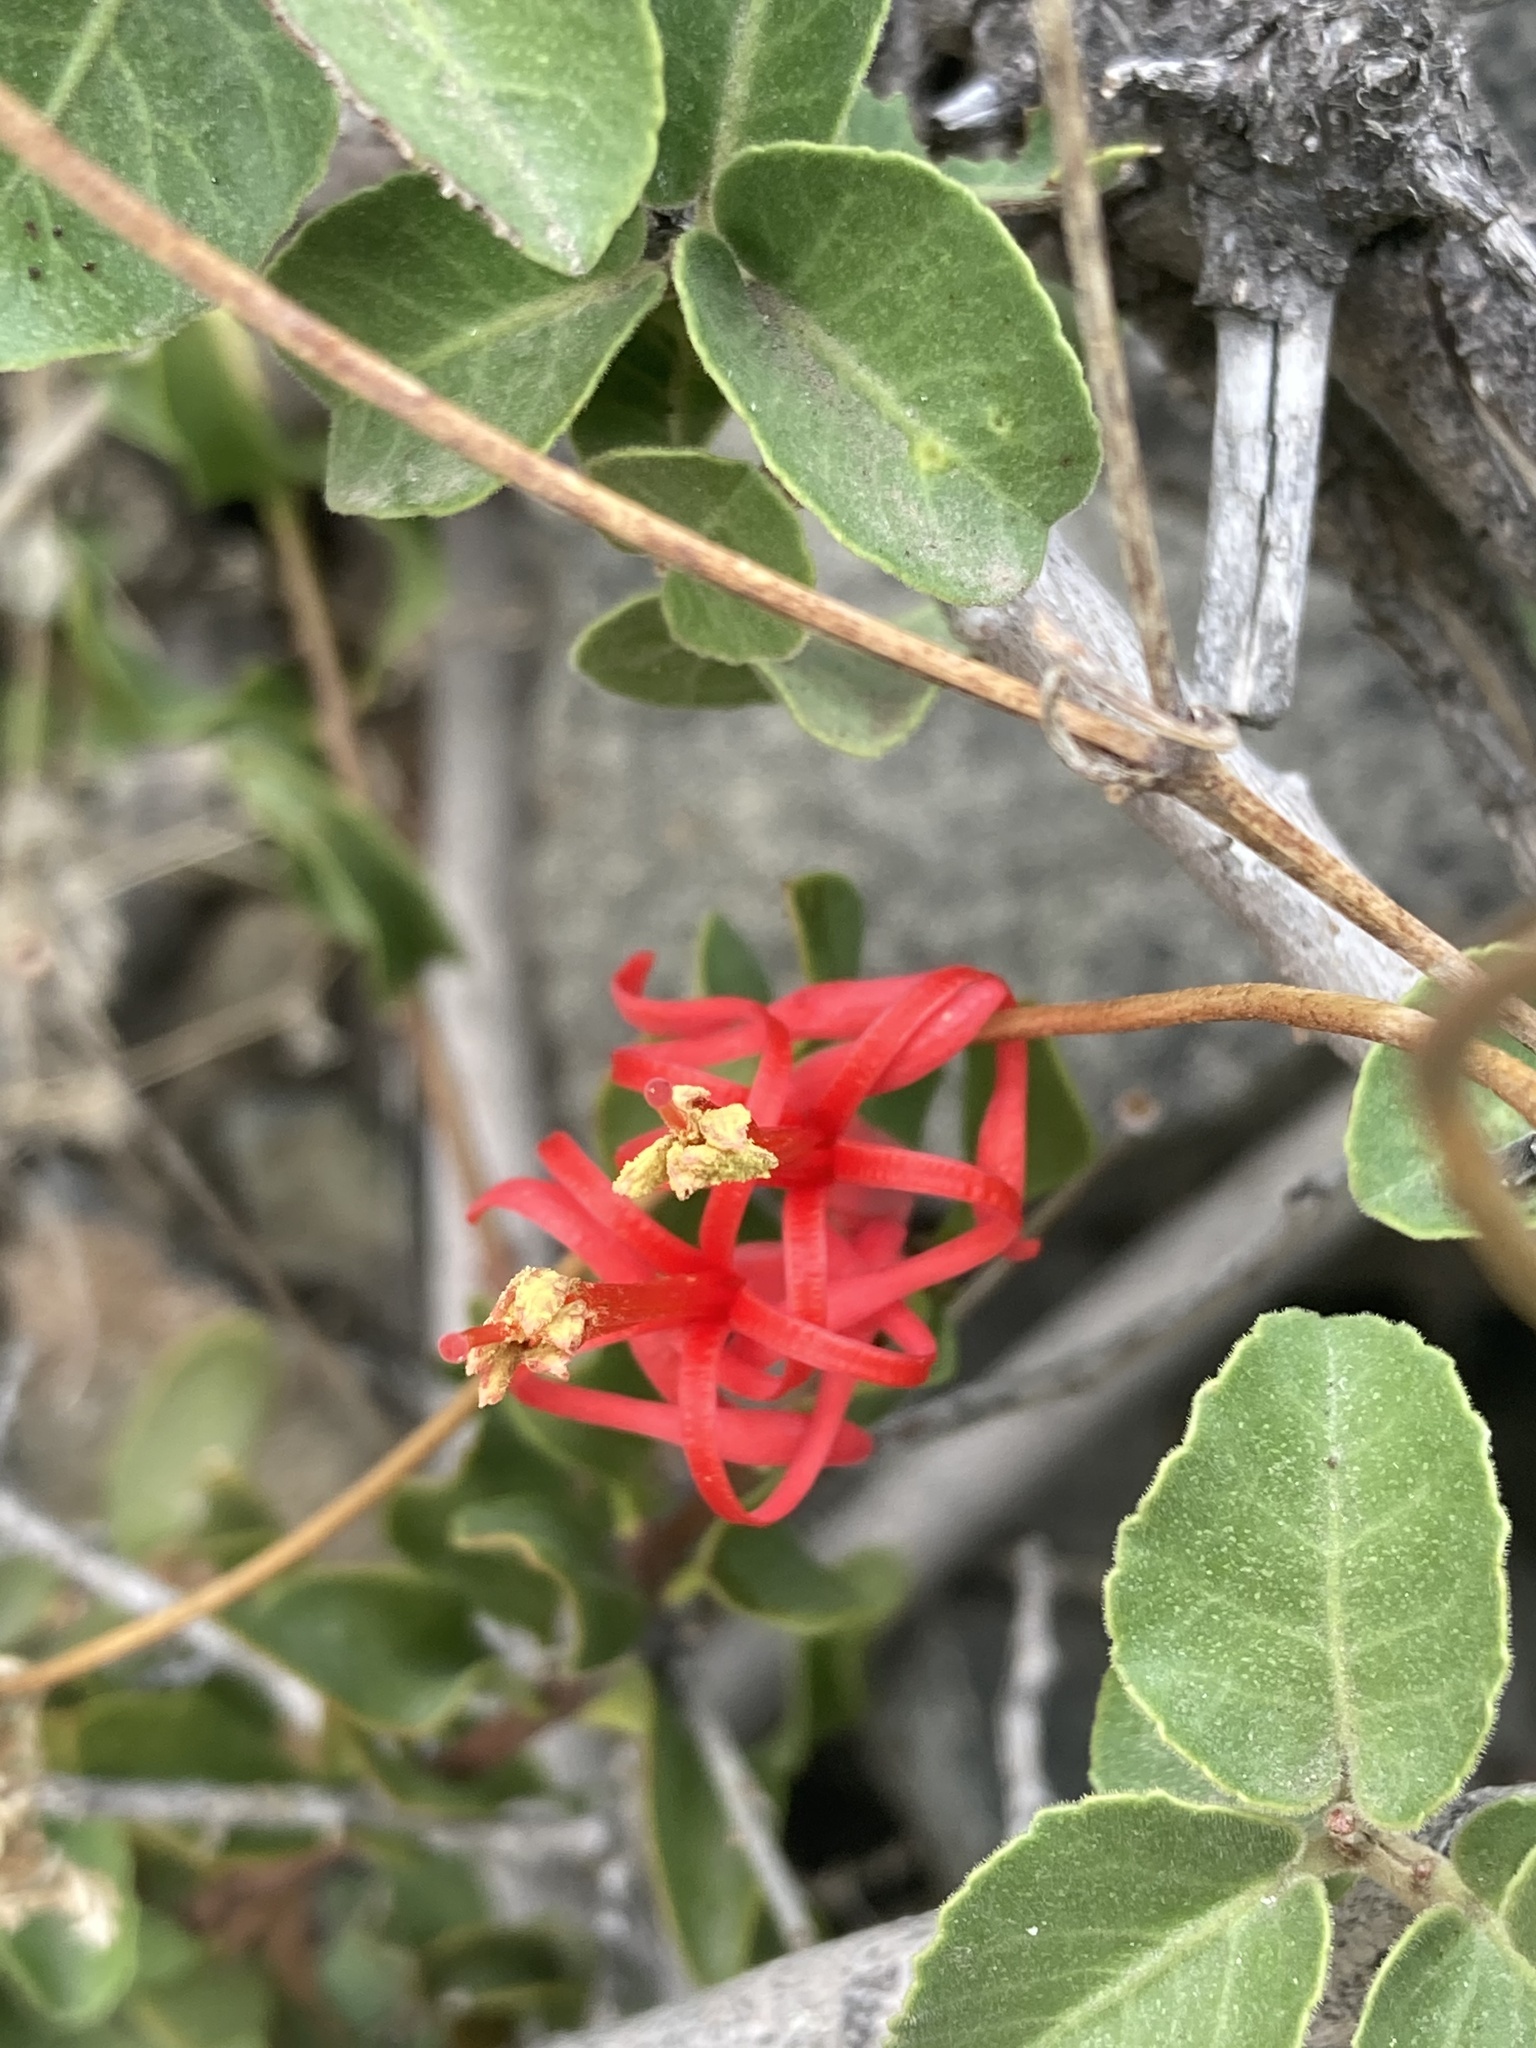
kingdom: Plantae
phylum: Tracheophyta
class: Magnoliopsida
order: Santalales
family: Loranthaceae
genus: Tristerix
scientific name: Tristerix verticillatus
